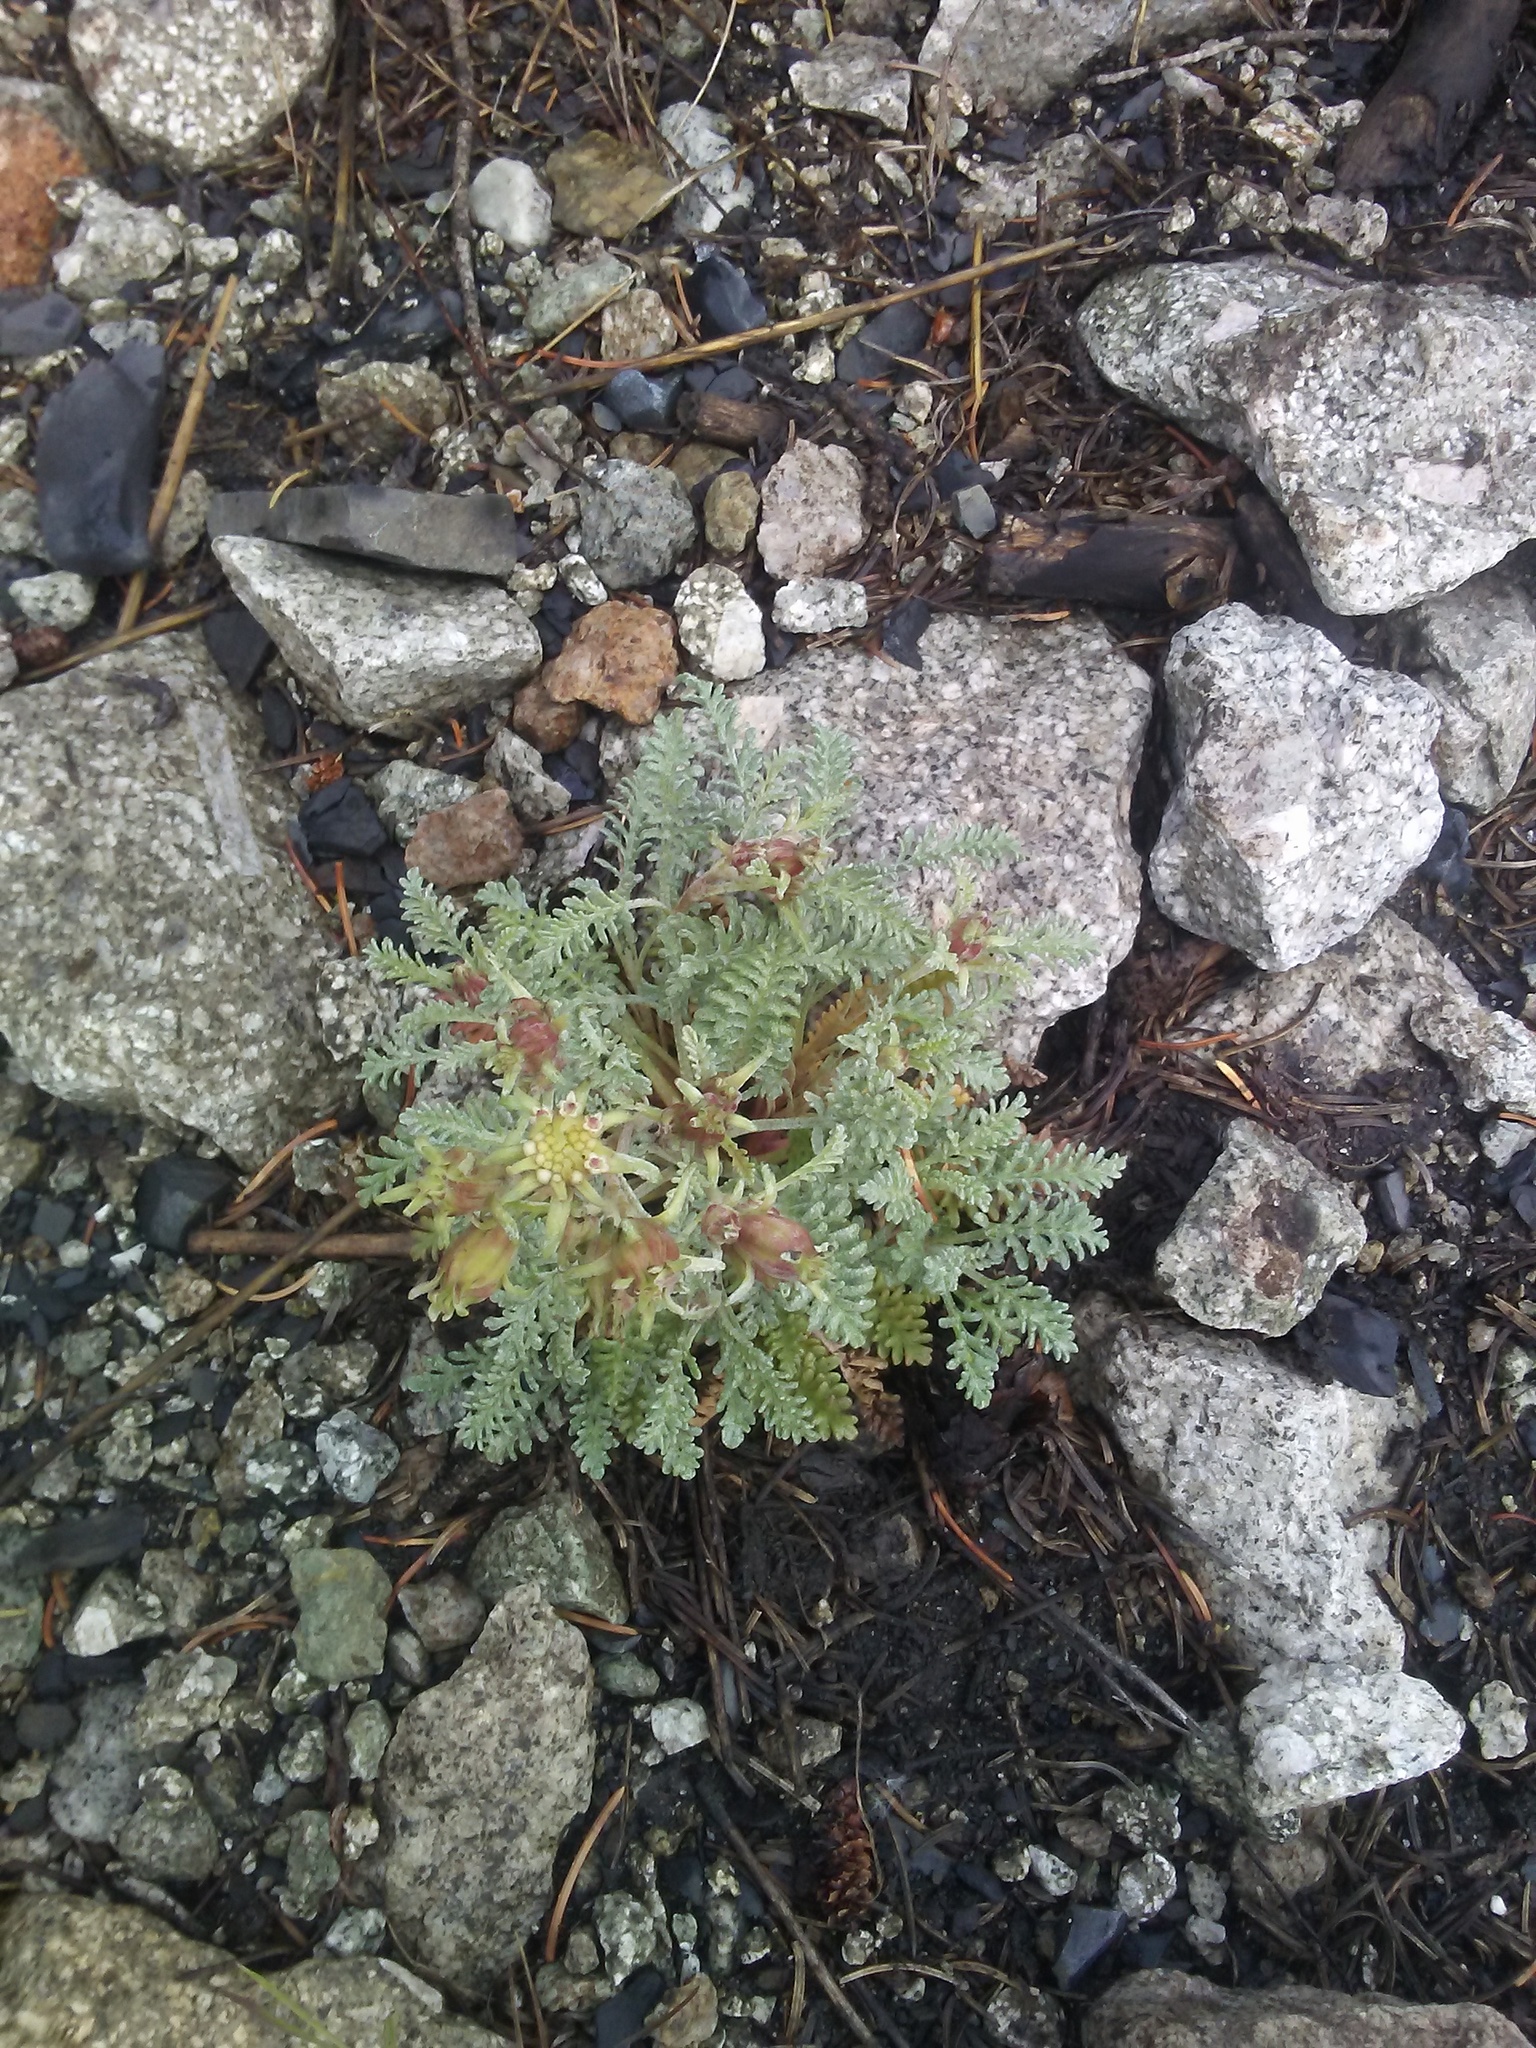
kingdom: Plantae
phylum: Tracheophyta
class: Magnoliopsida
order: Asterales
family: Asteraceae
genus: Chaenactis
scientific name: Chaenactis douglasii
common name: Hoary pincushion
